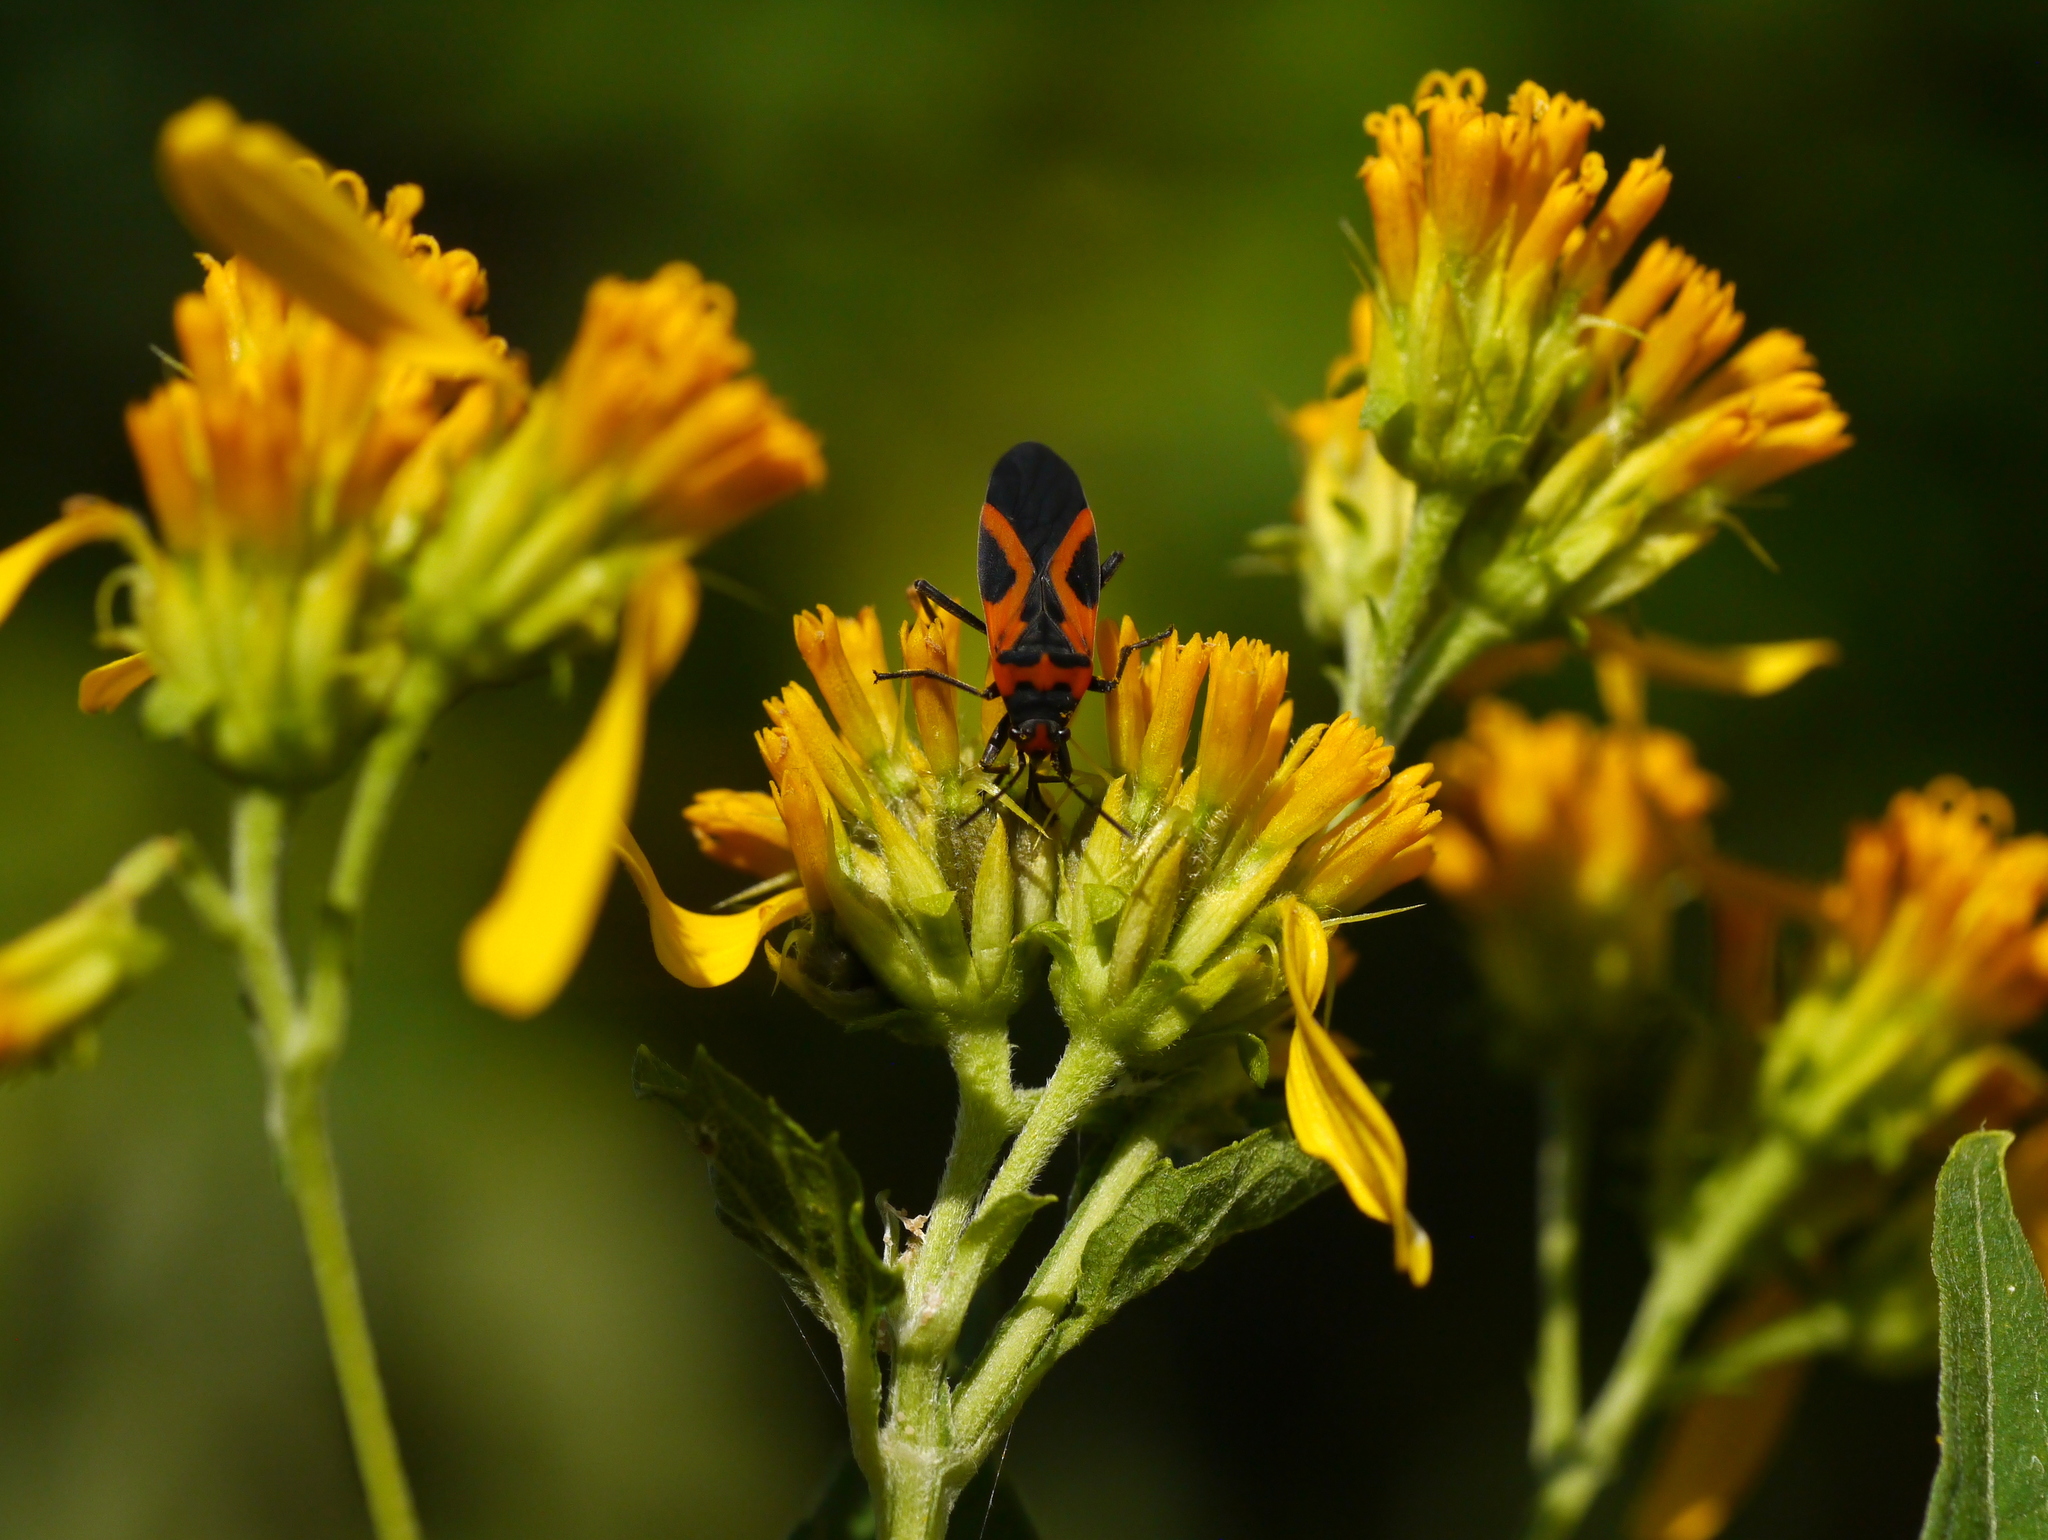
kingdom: Animalia
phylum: Arthropoda
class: Insecta
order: Hemiptera
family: Lygaeidae
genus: Lygaeus
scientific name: Lygaeus turcicus
